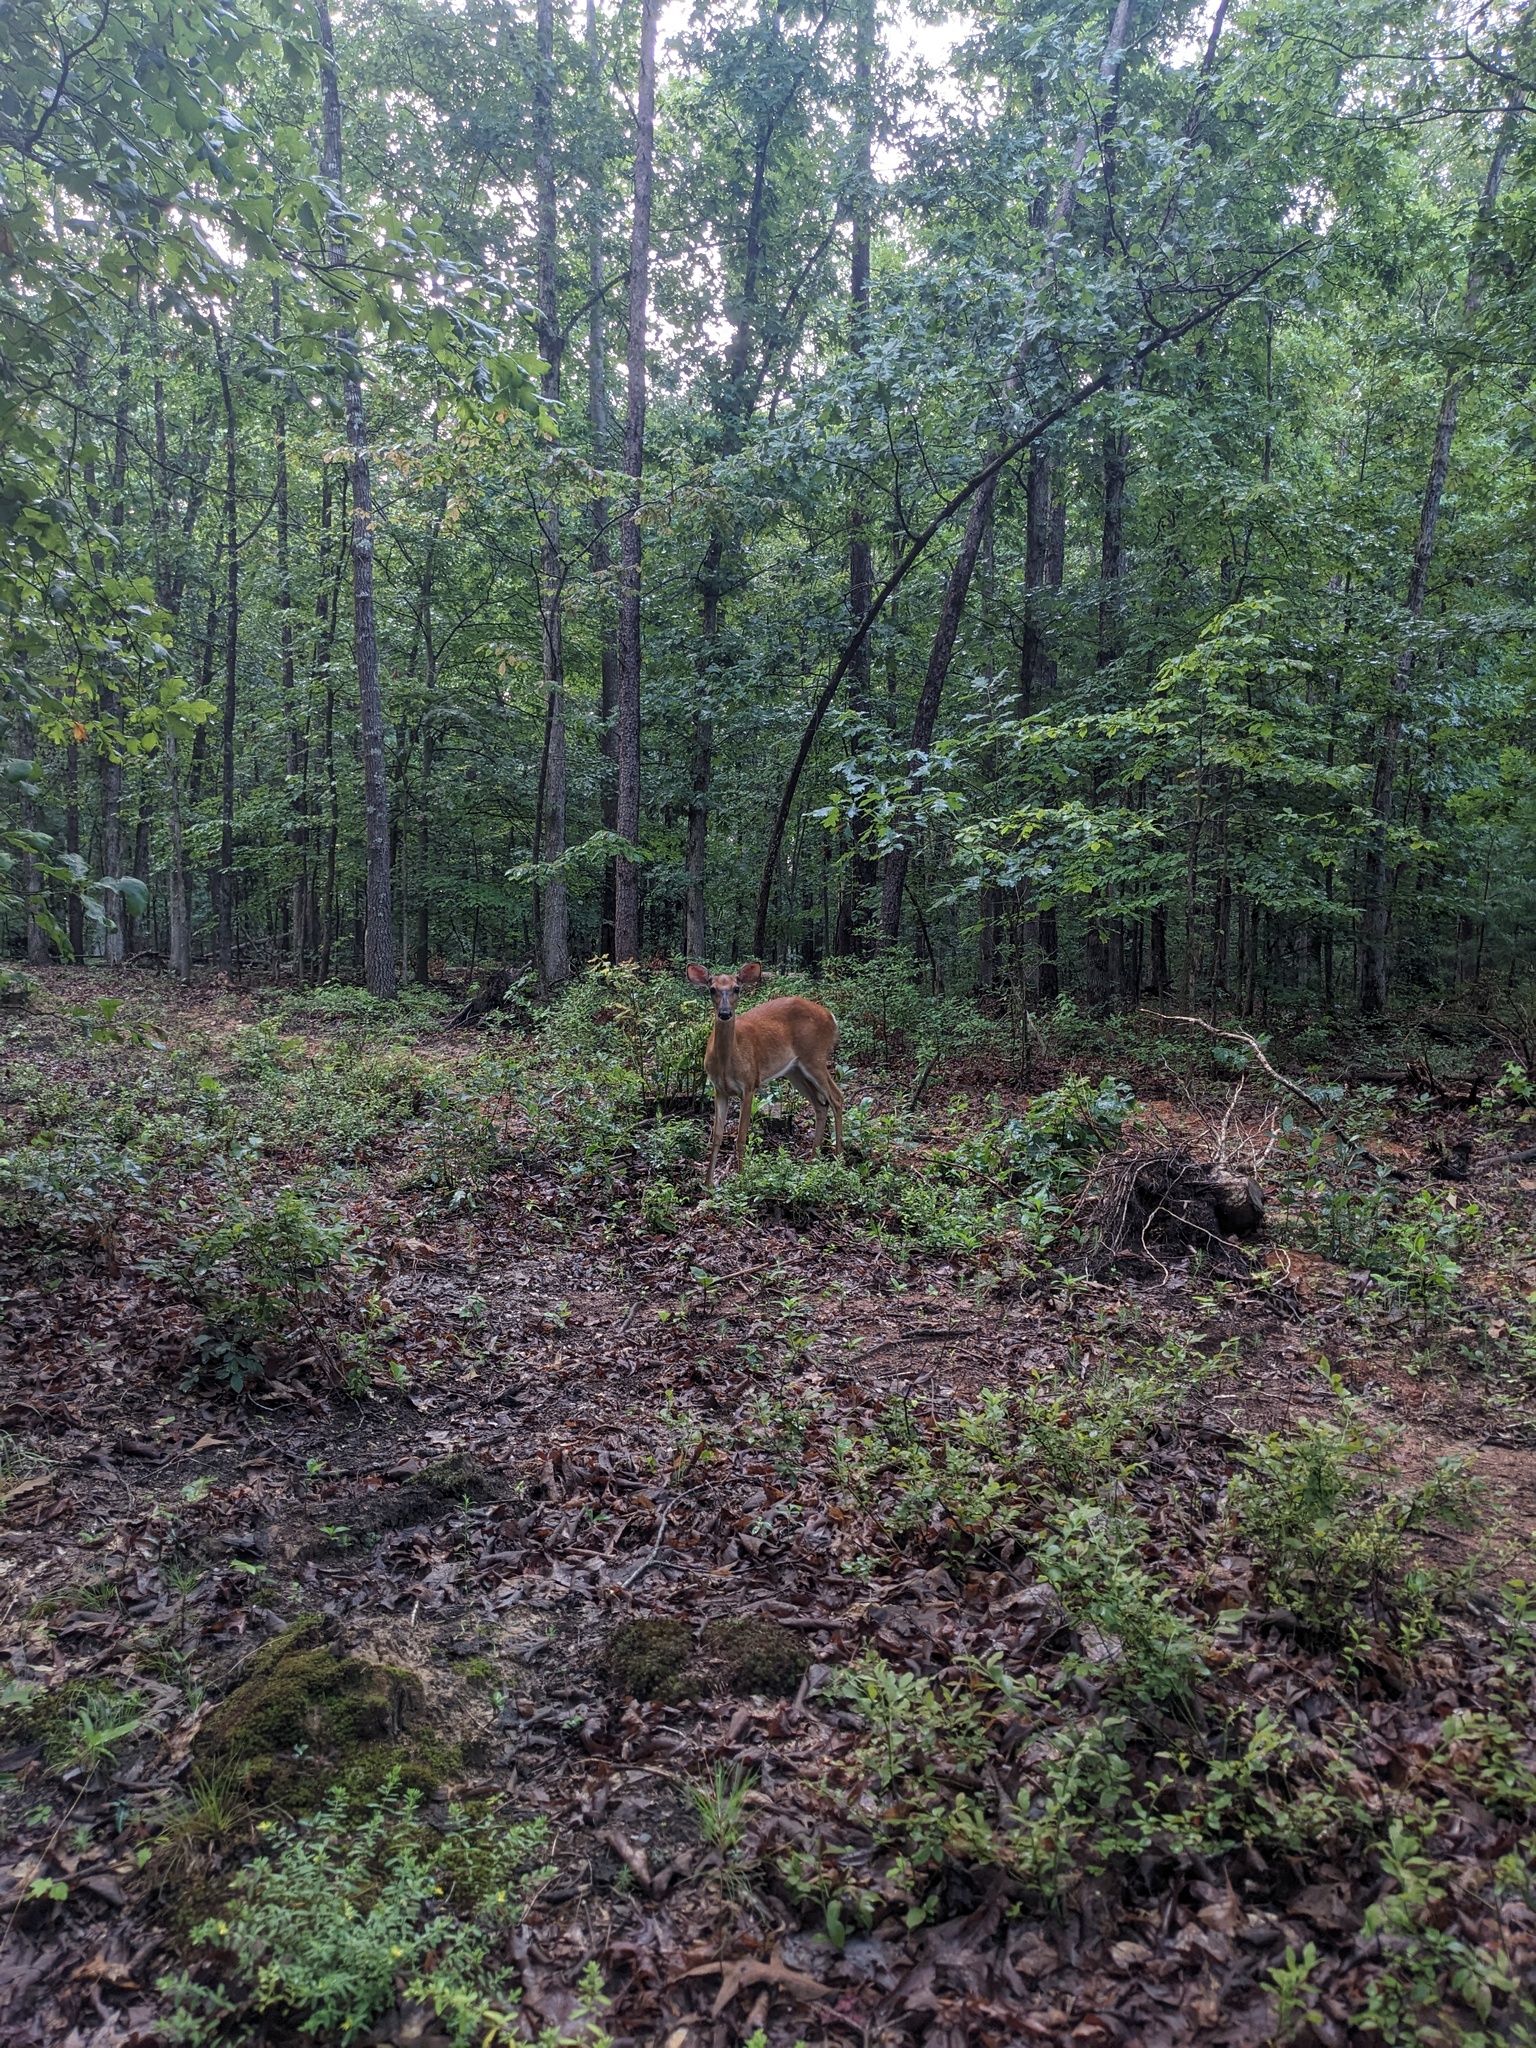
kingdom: Animalia
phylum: Chordata
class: Mammalia
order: Artiodactyla
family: Cervidae
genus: Odocoileus
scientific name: Odocoileus virginianus
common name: White-tailed deer
